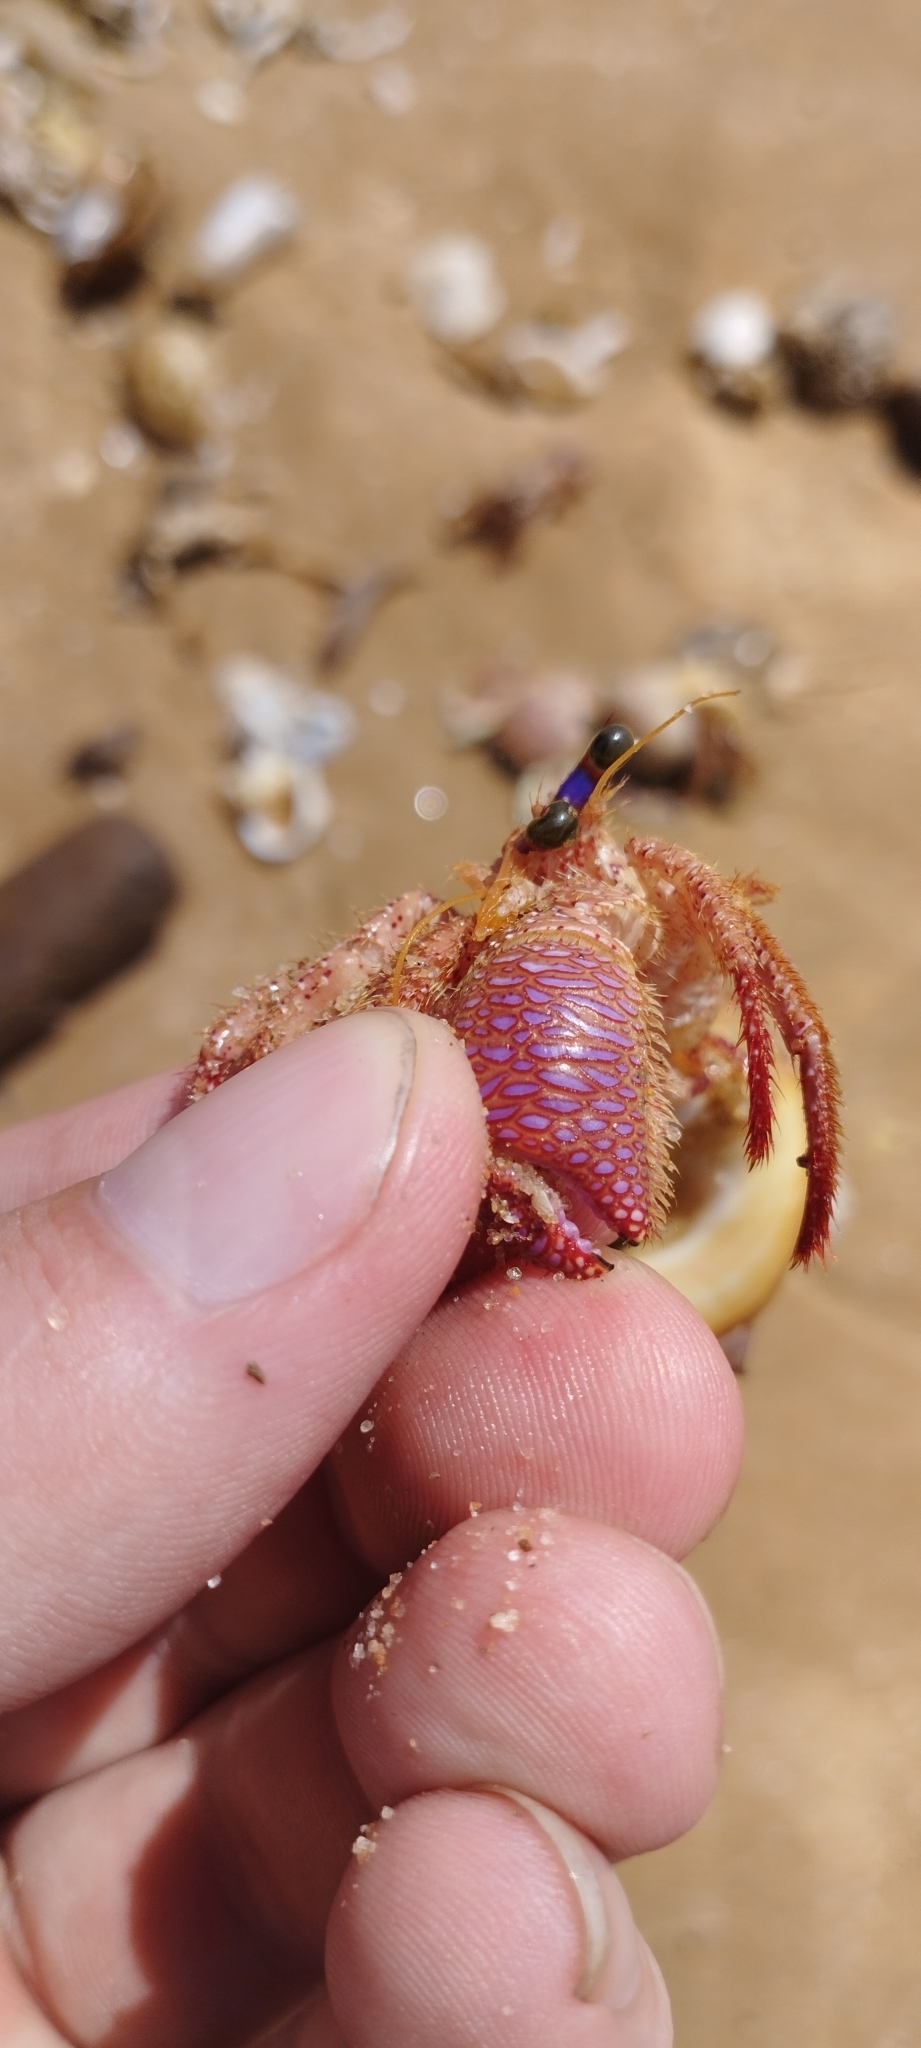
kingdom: Animalia
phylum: Arthropoda
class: Malacostraca
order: Decapoda
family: Diogenidae
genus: Dardanus
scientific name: Dardanus imbricatus
